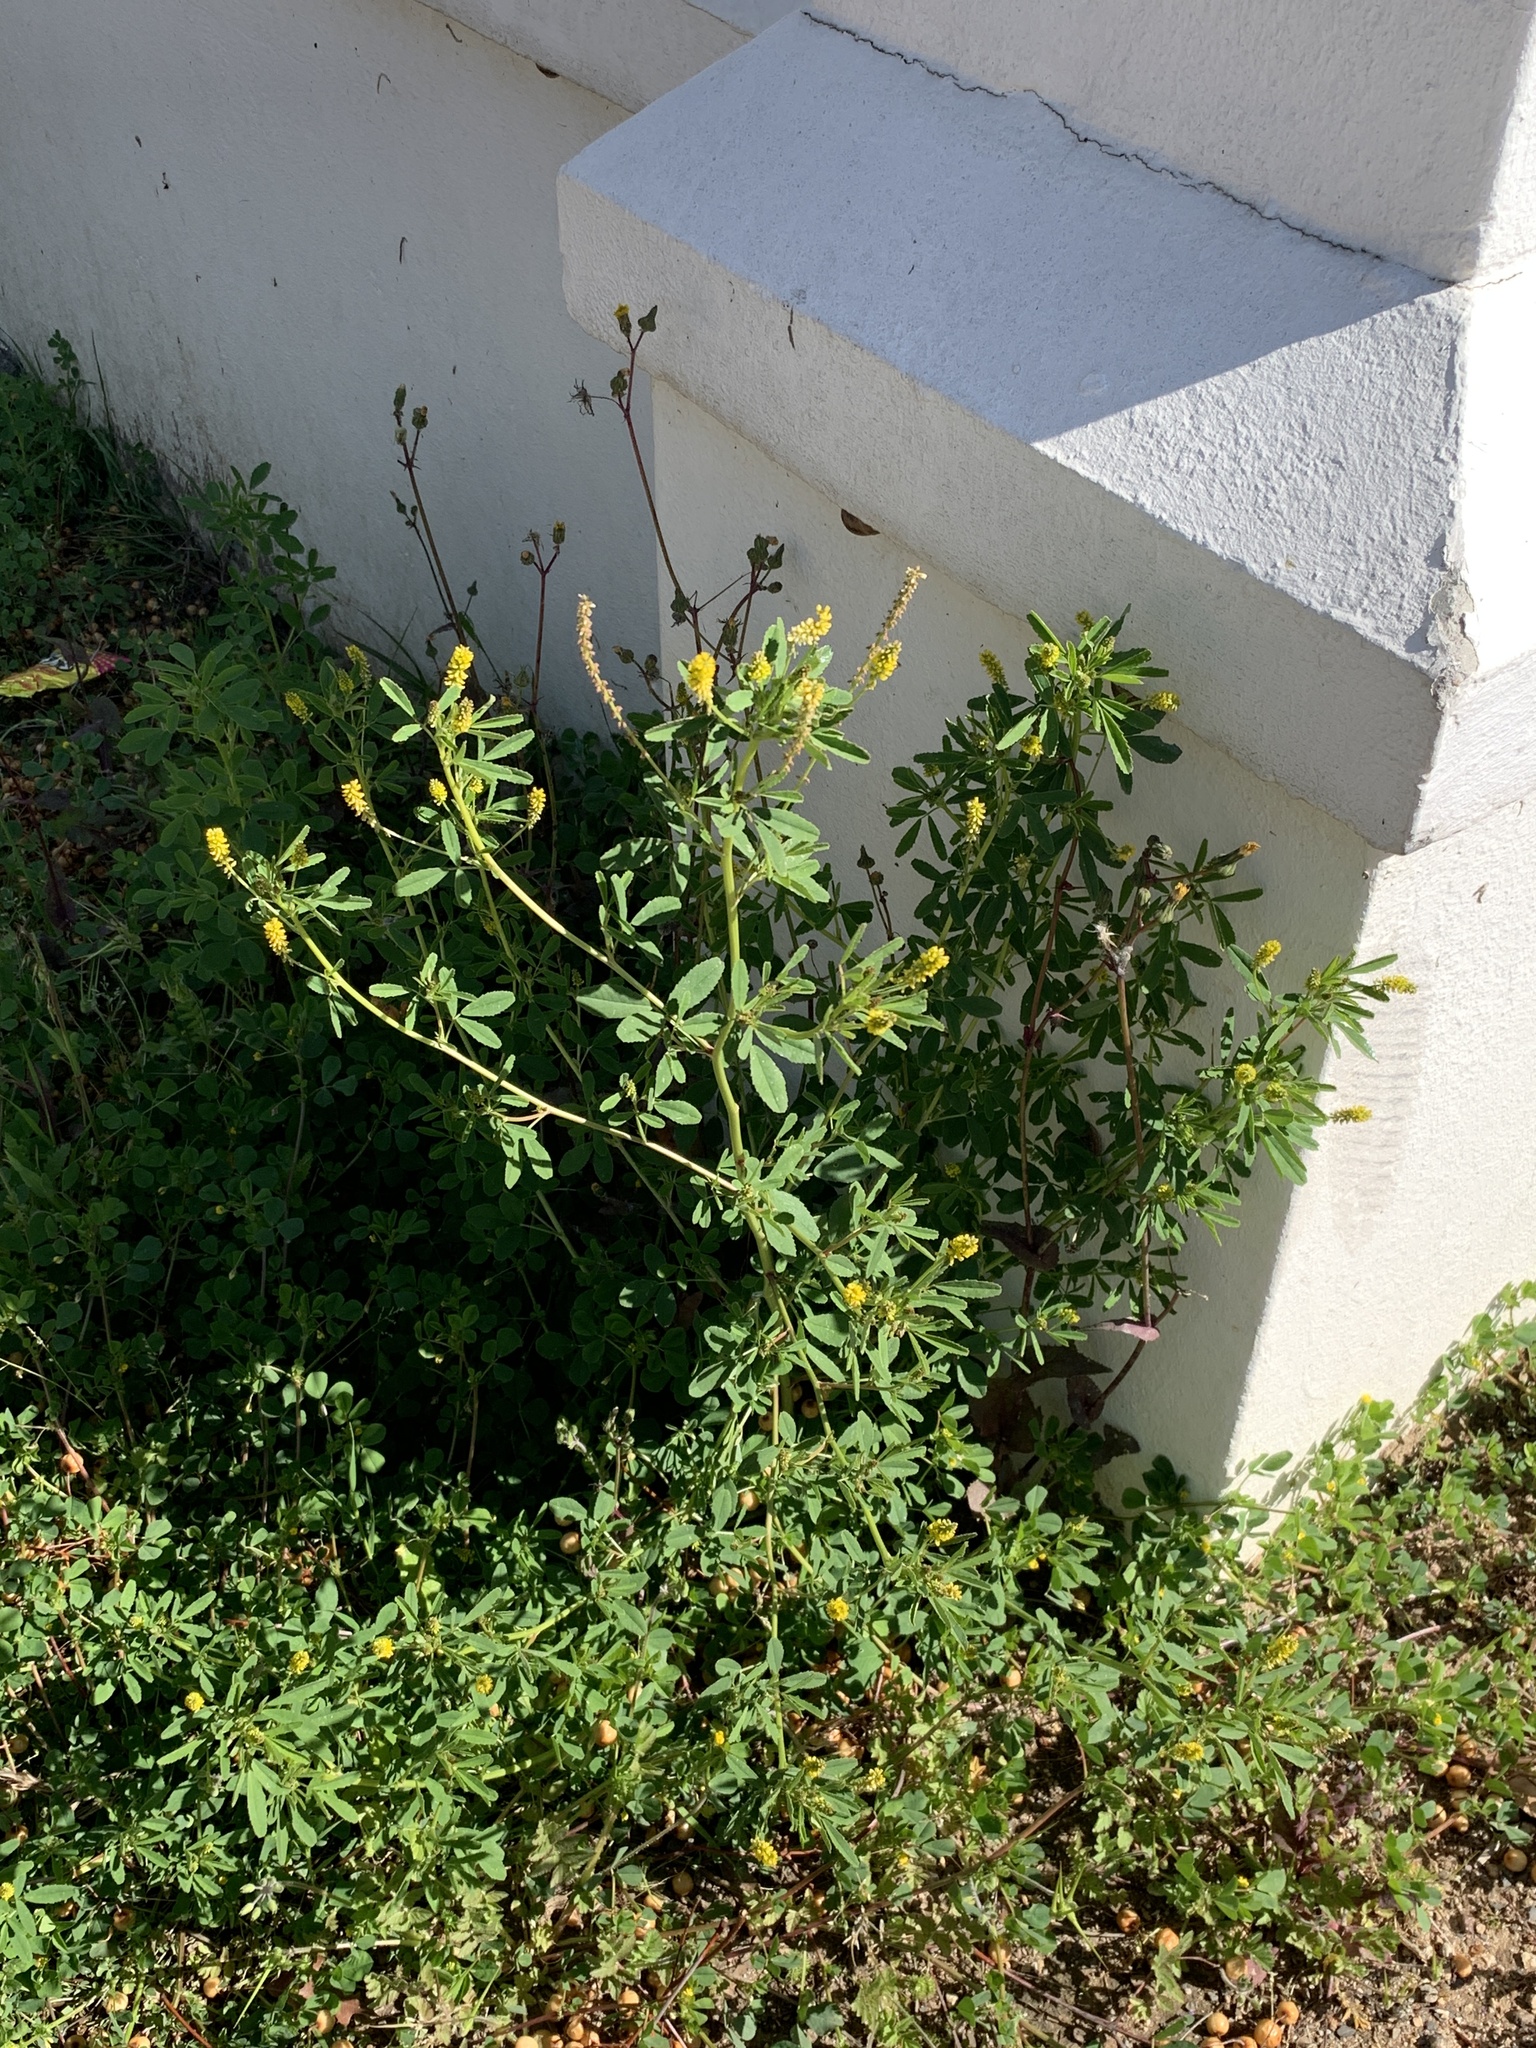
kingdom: Plantae
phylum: Tracheophyta
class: Magnoliopsida
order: Fabales
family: Fabaceae
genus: Melilotus
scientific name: Melilotus indicus
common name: Small melilot
